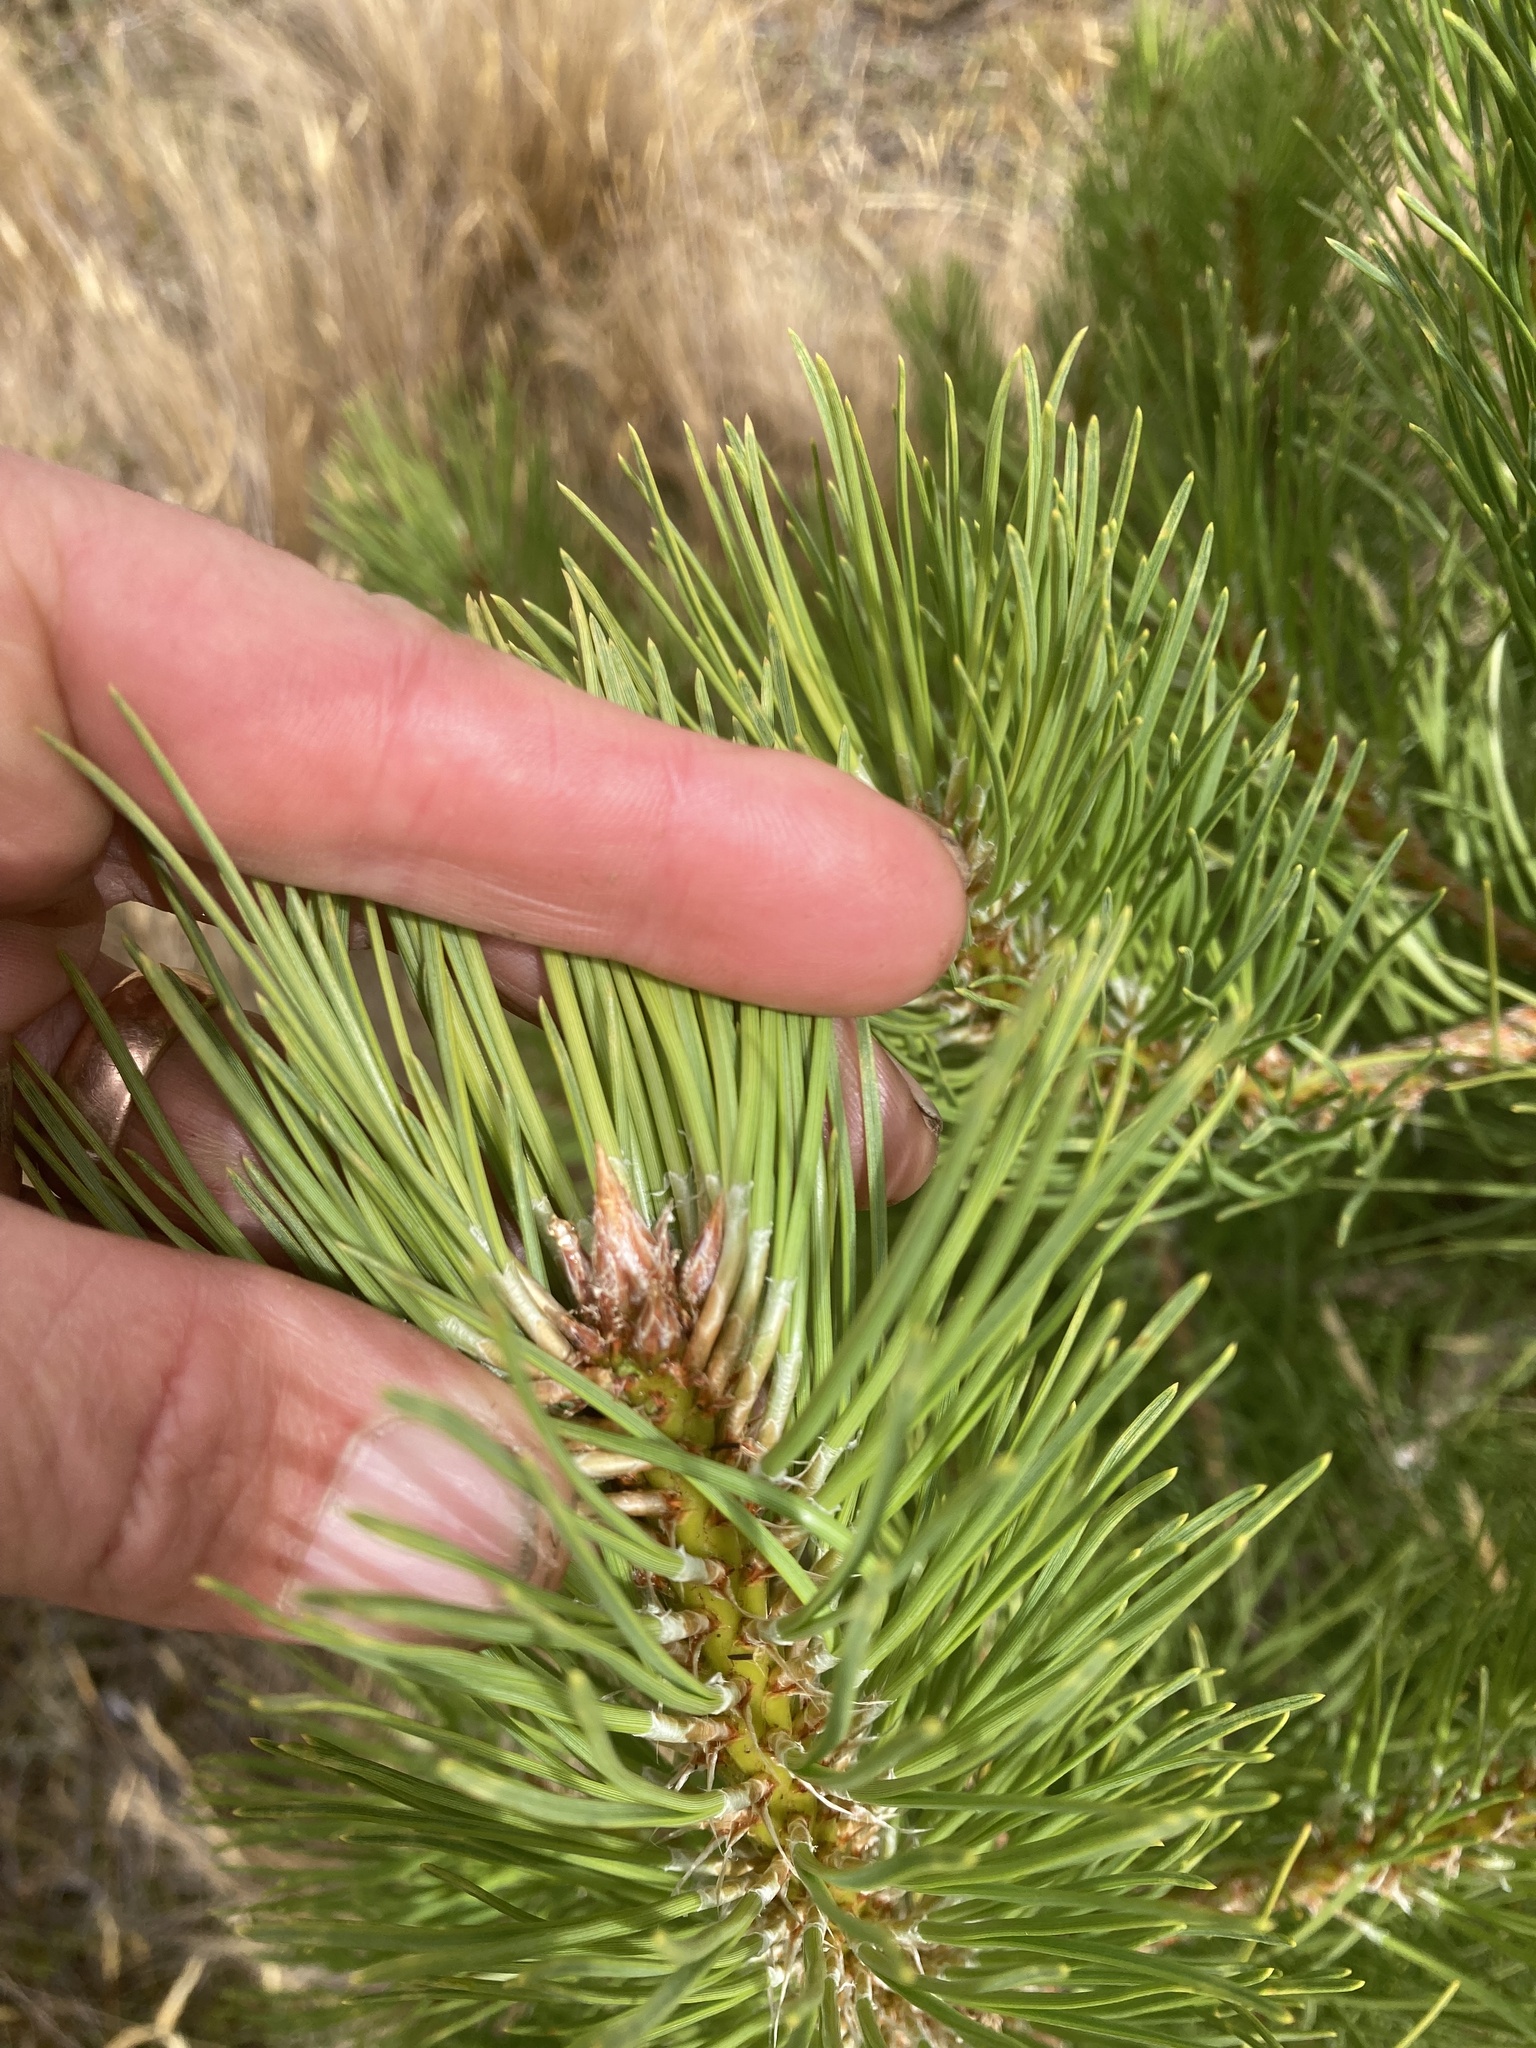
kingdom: Plantae
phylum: Tracheophyta
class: Pinopsida
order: Pinales
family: Pinaceae
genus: Pinus
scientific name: Pinus nigra
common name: Austrian pine
